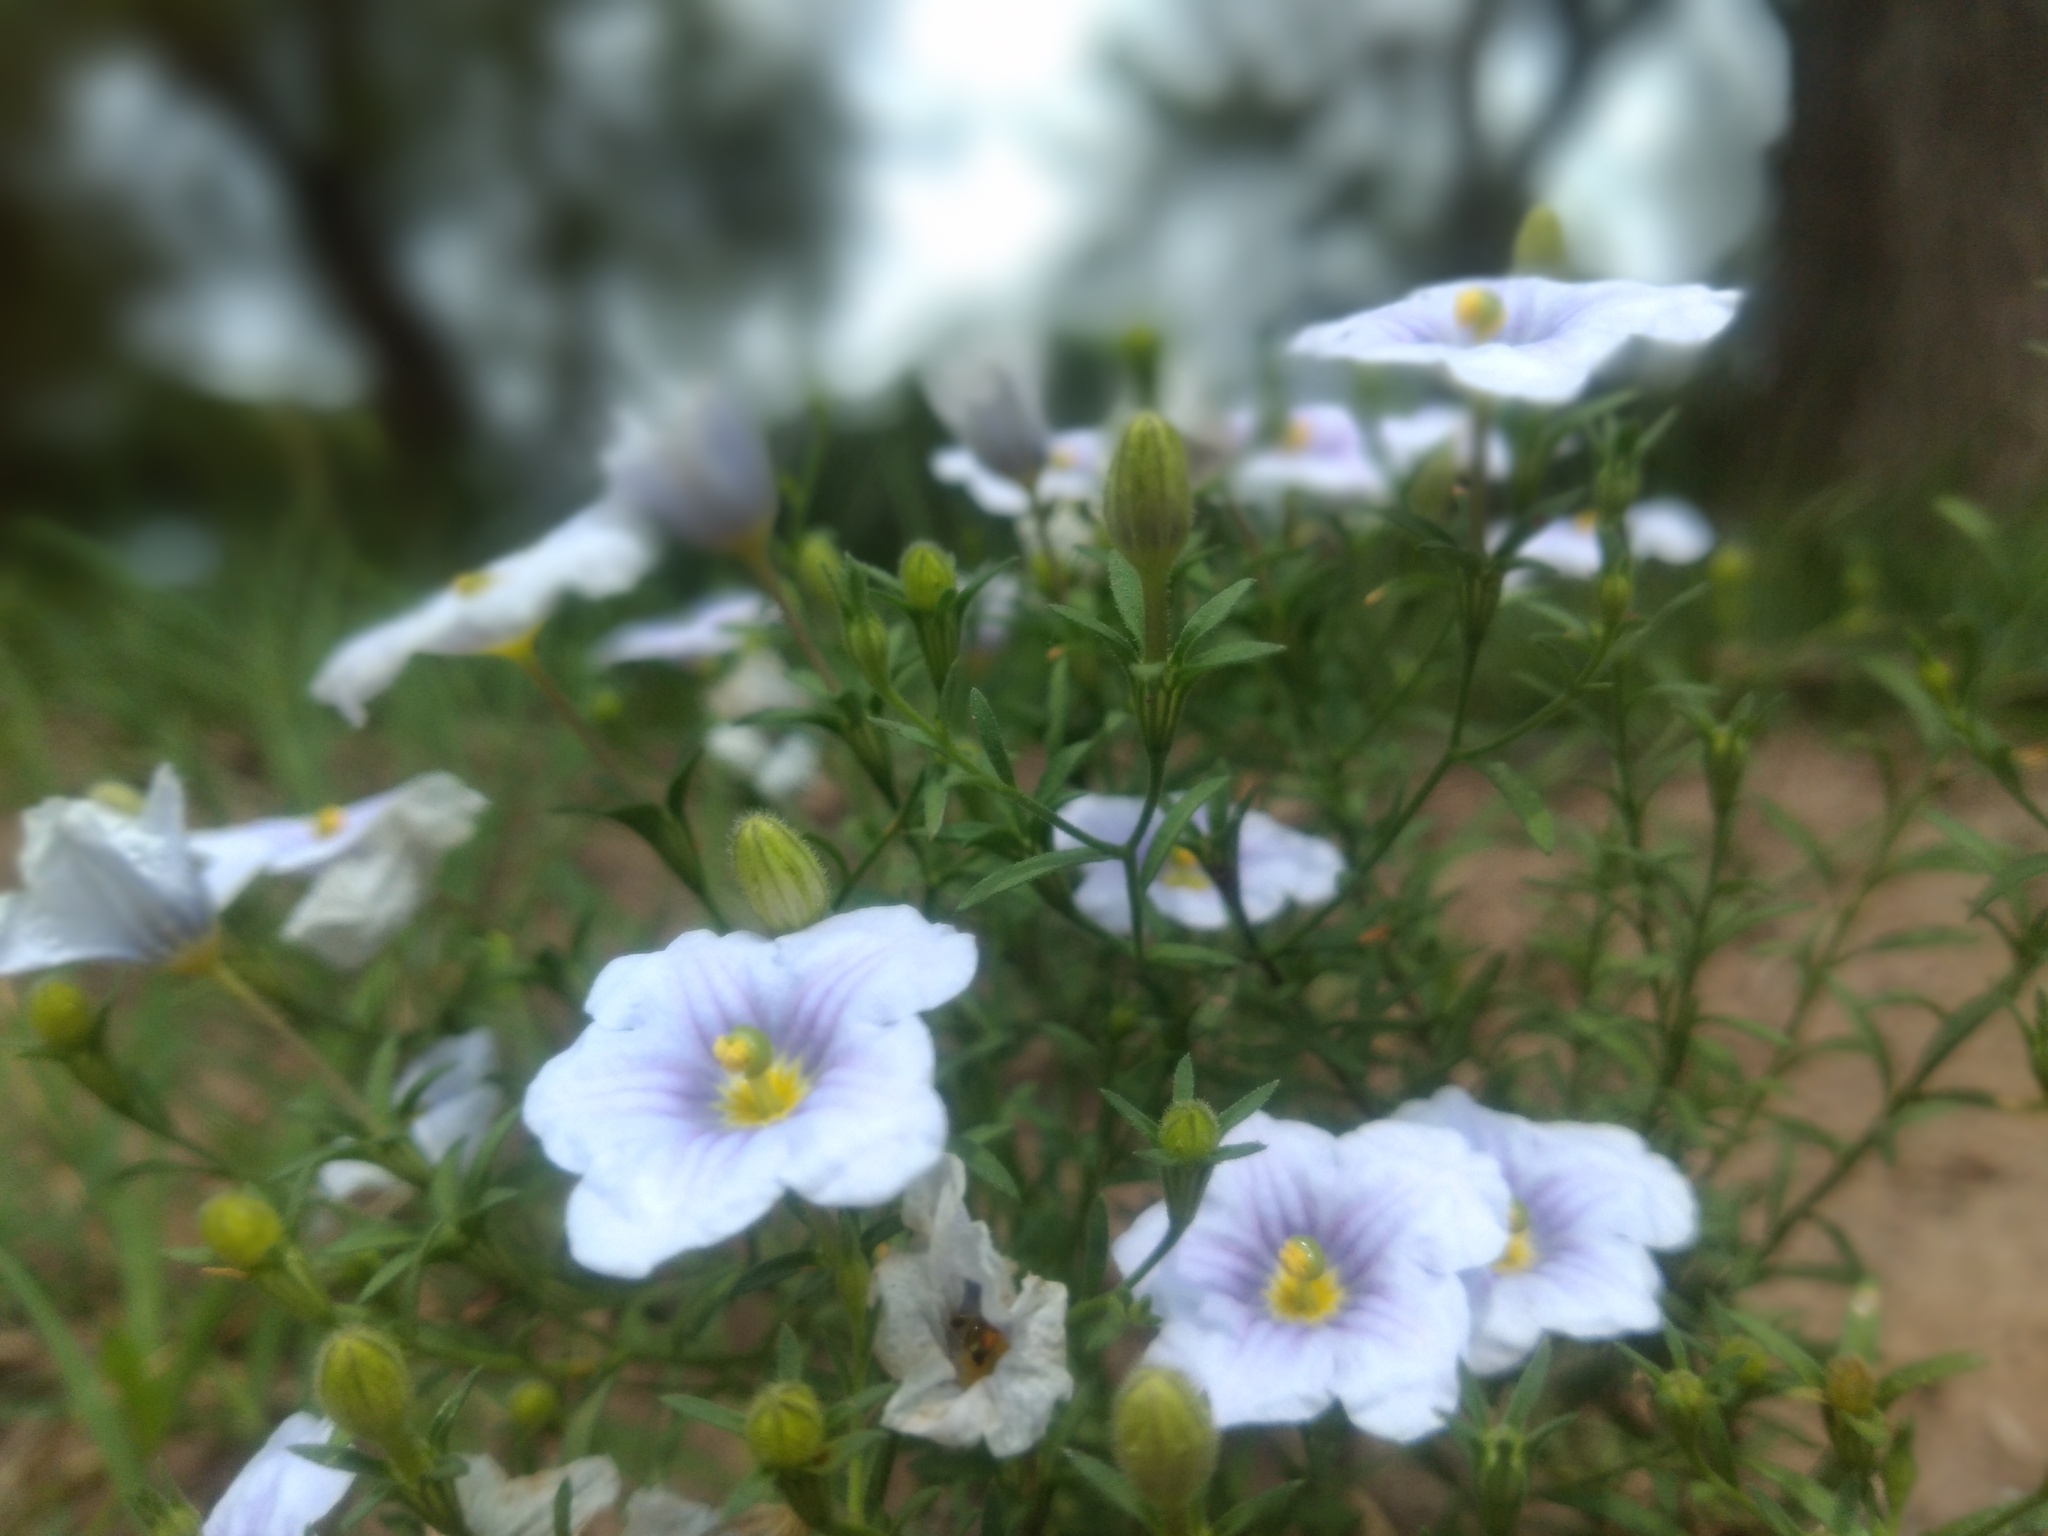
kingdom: Plantae
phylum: Tracheophyta
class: Magnoliopsida
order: Solanales
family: Solanaceae
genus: Nierembergia
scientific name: Nierembergia linariifolia
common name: Dwarf cupflower
